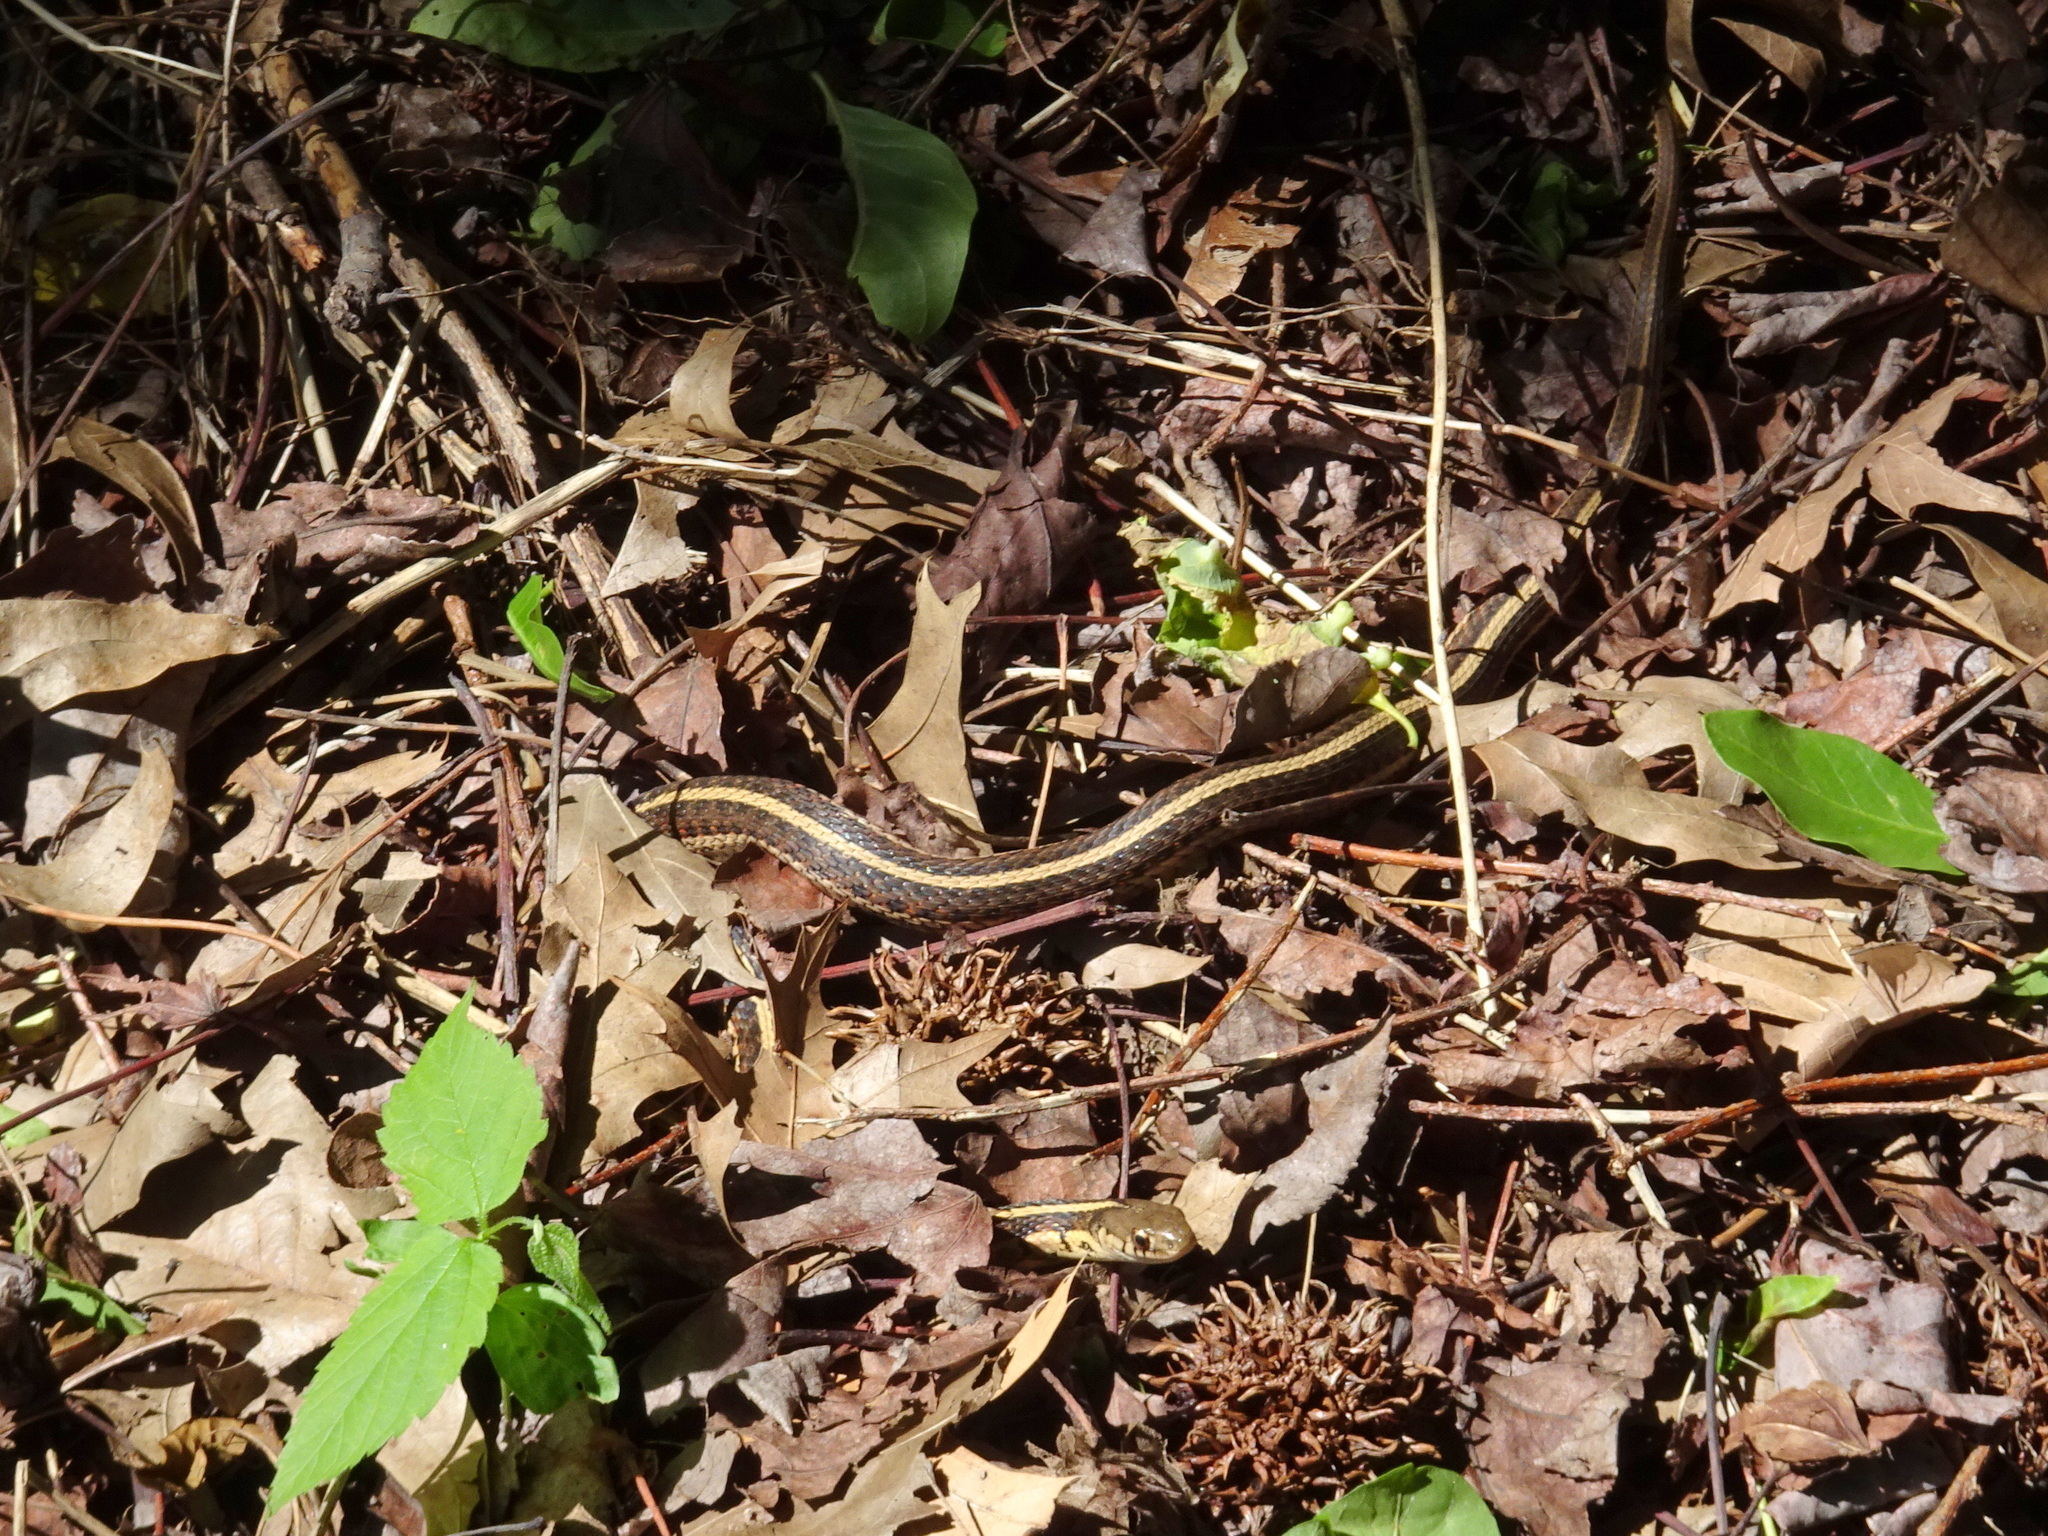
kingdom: Animalia
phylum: Chordata
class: Squamata
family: Colubridae
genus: Thamnophis
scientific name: Thamnophis sirtalis
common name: Common garter snake
